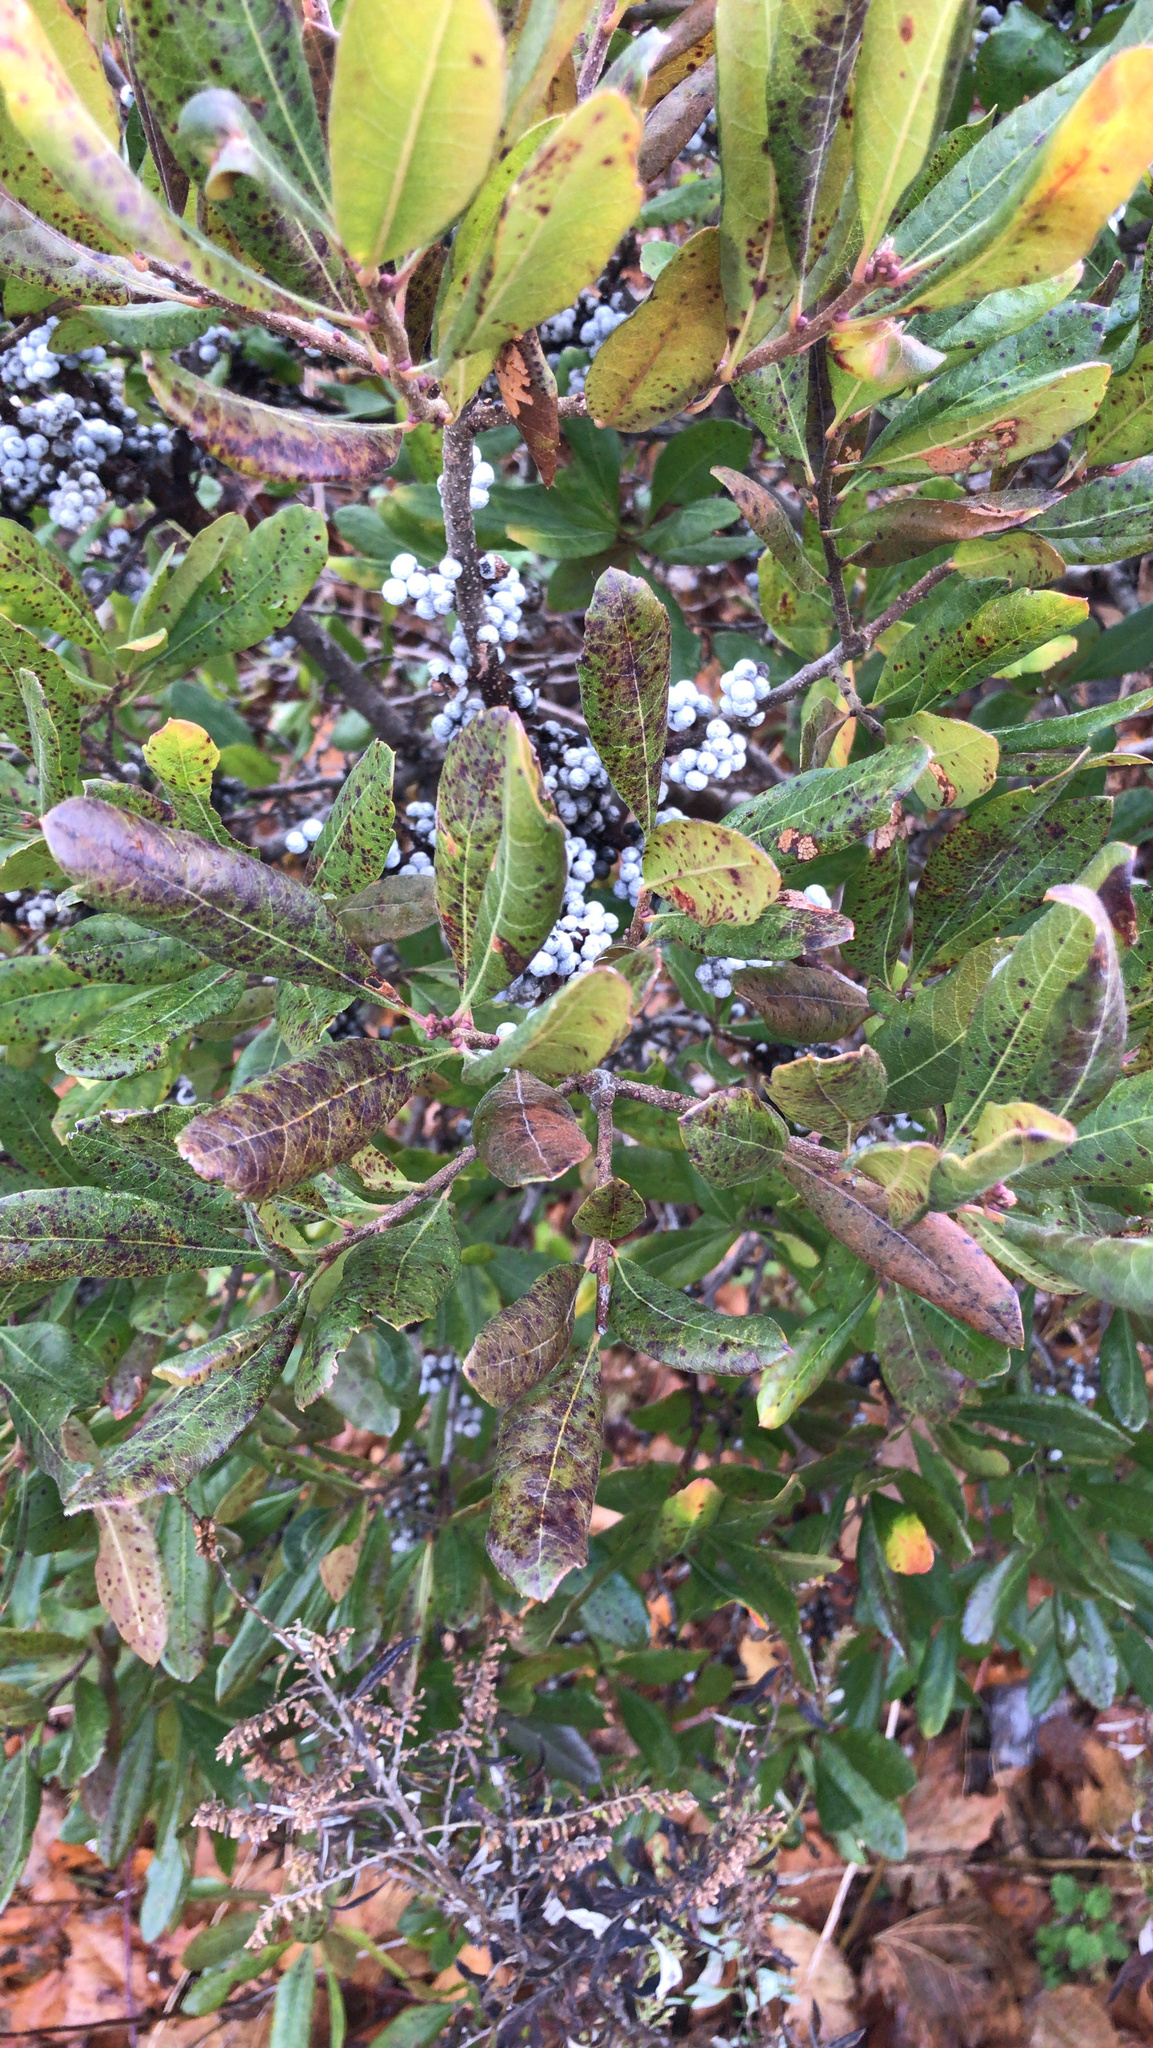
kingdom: Plantae
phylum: Tracheophyta
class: Magnoliopsida
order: Fagales
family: Myricaceae
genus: Morella
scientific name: Morella pensylvanica
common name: Northern bayberry
